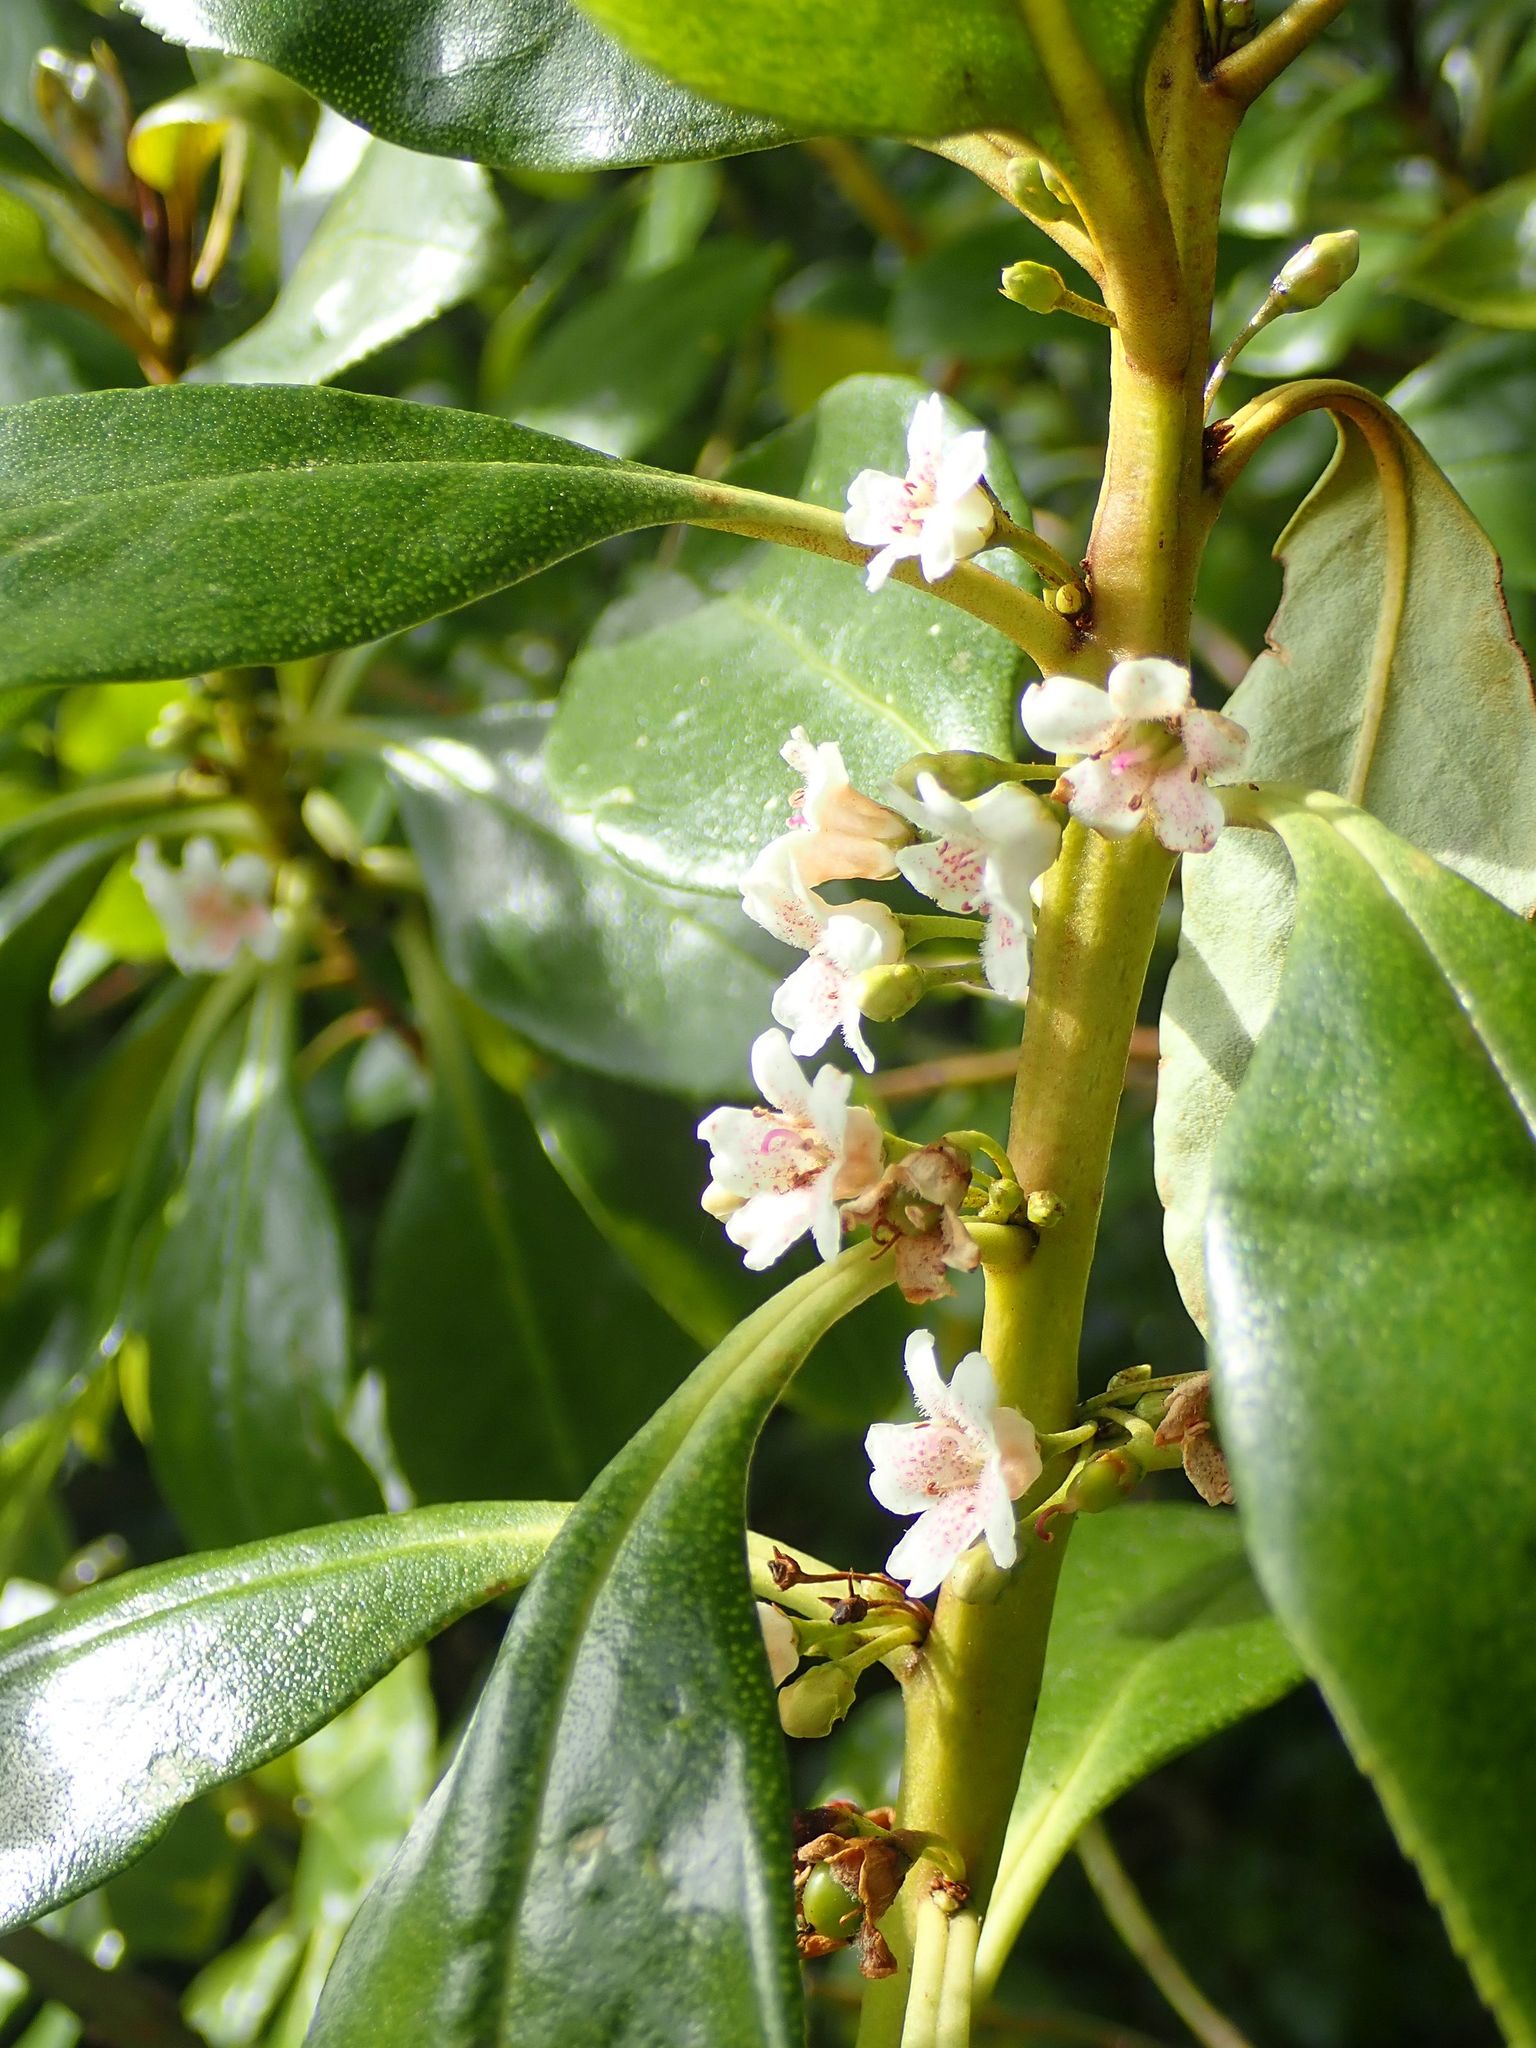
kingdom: Plantae
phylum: Tracheophyta
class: Magnoliopsida
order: Lamiales
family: Scrophulariaceae
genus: Myoporum
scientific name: Myoporum laetum
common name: Ngaio tree
